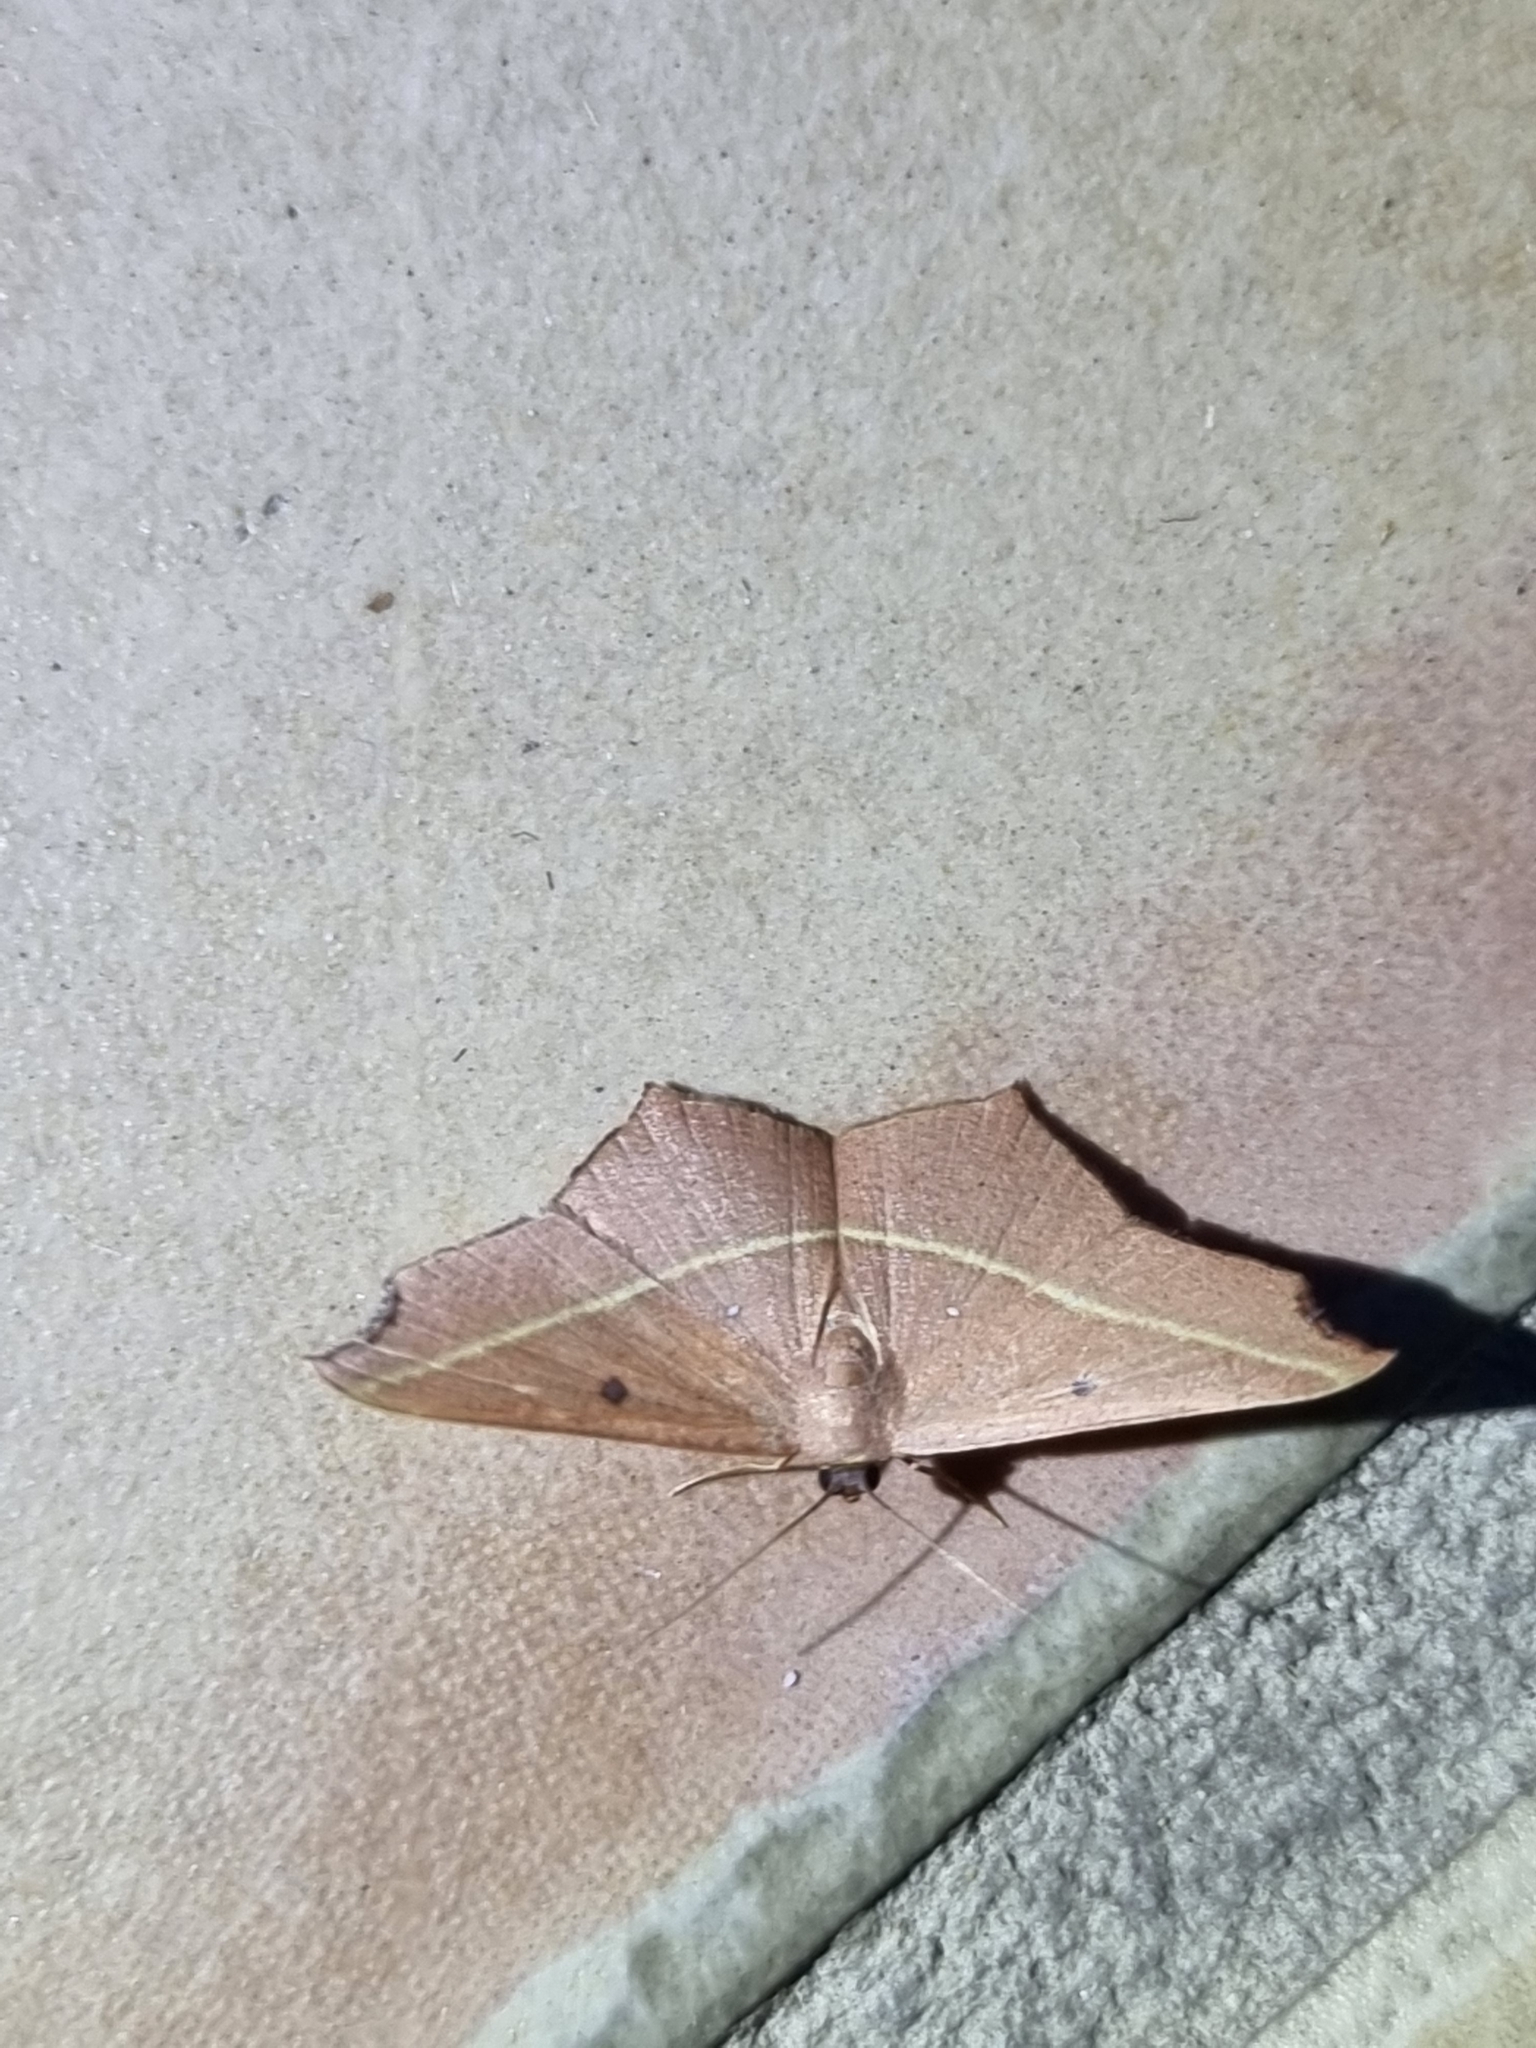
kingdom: Animalia
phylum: Arthropoda
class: Insecta
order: Lepidoptera
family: Geometridae
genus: Traminda
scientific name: Traminda aventiaria
